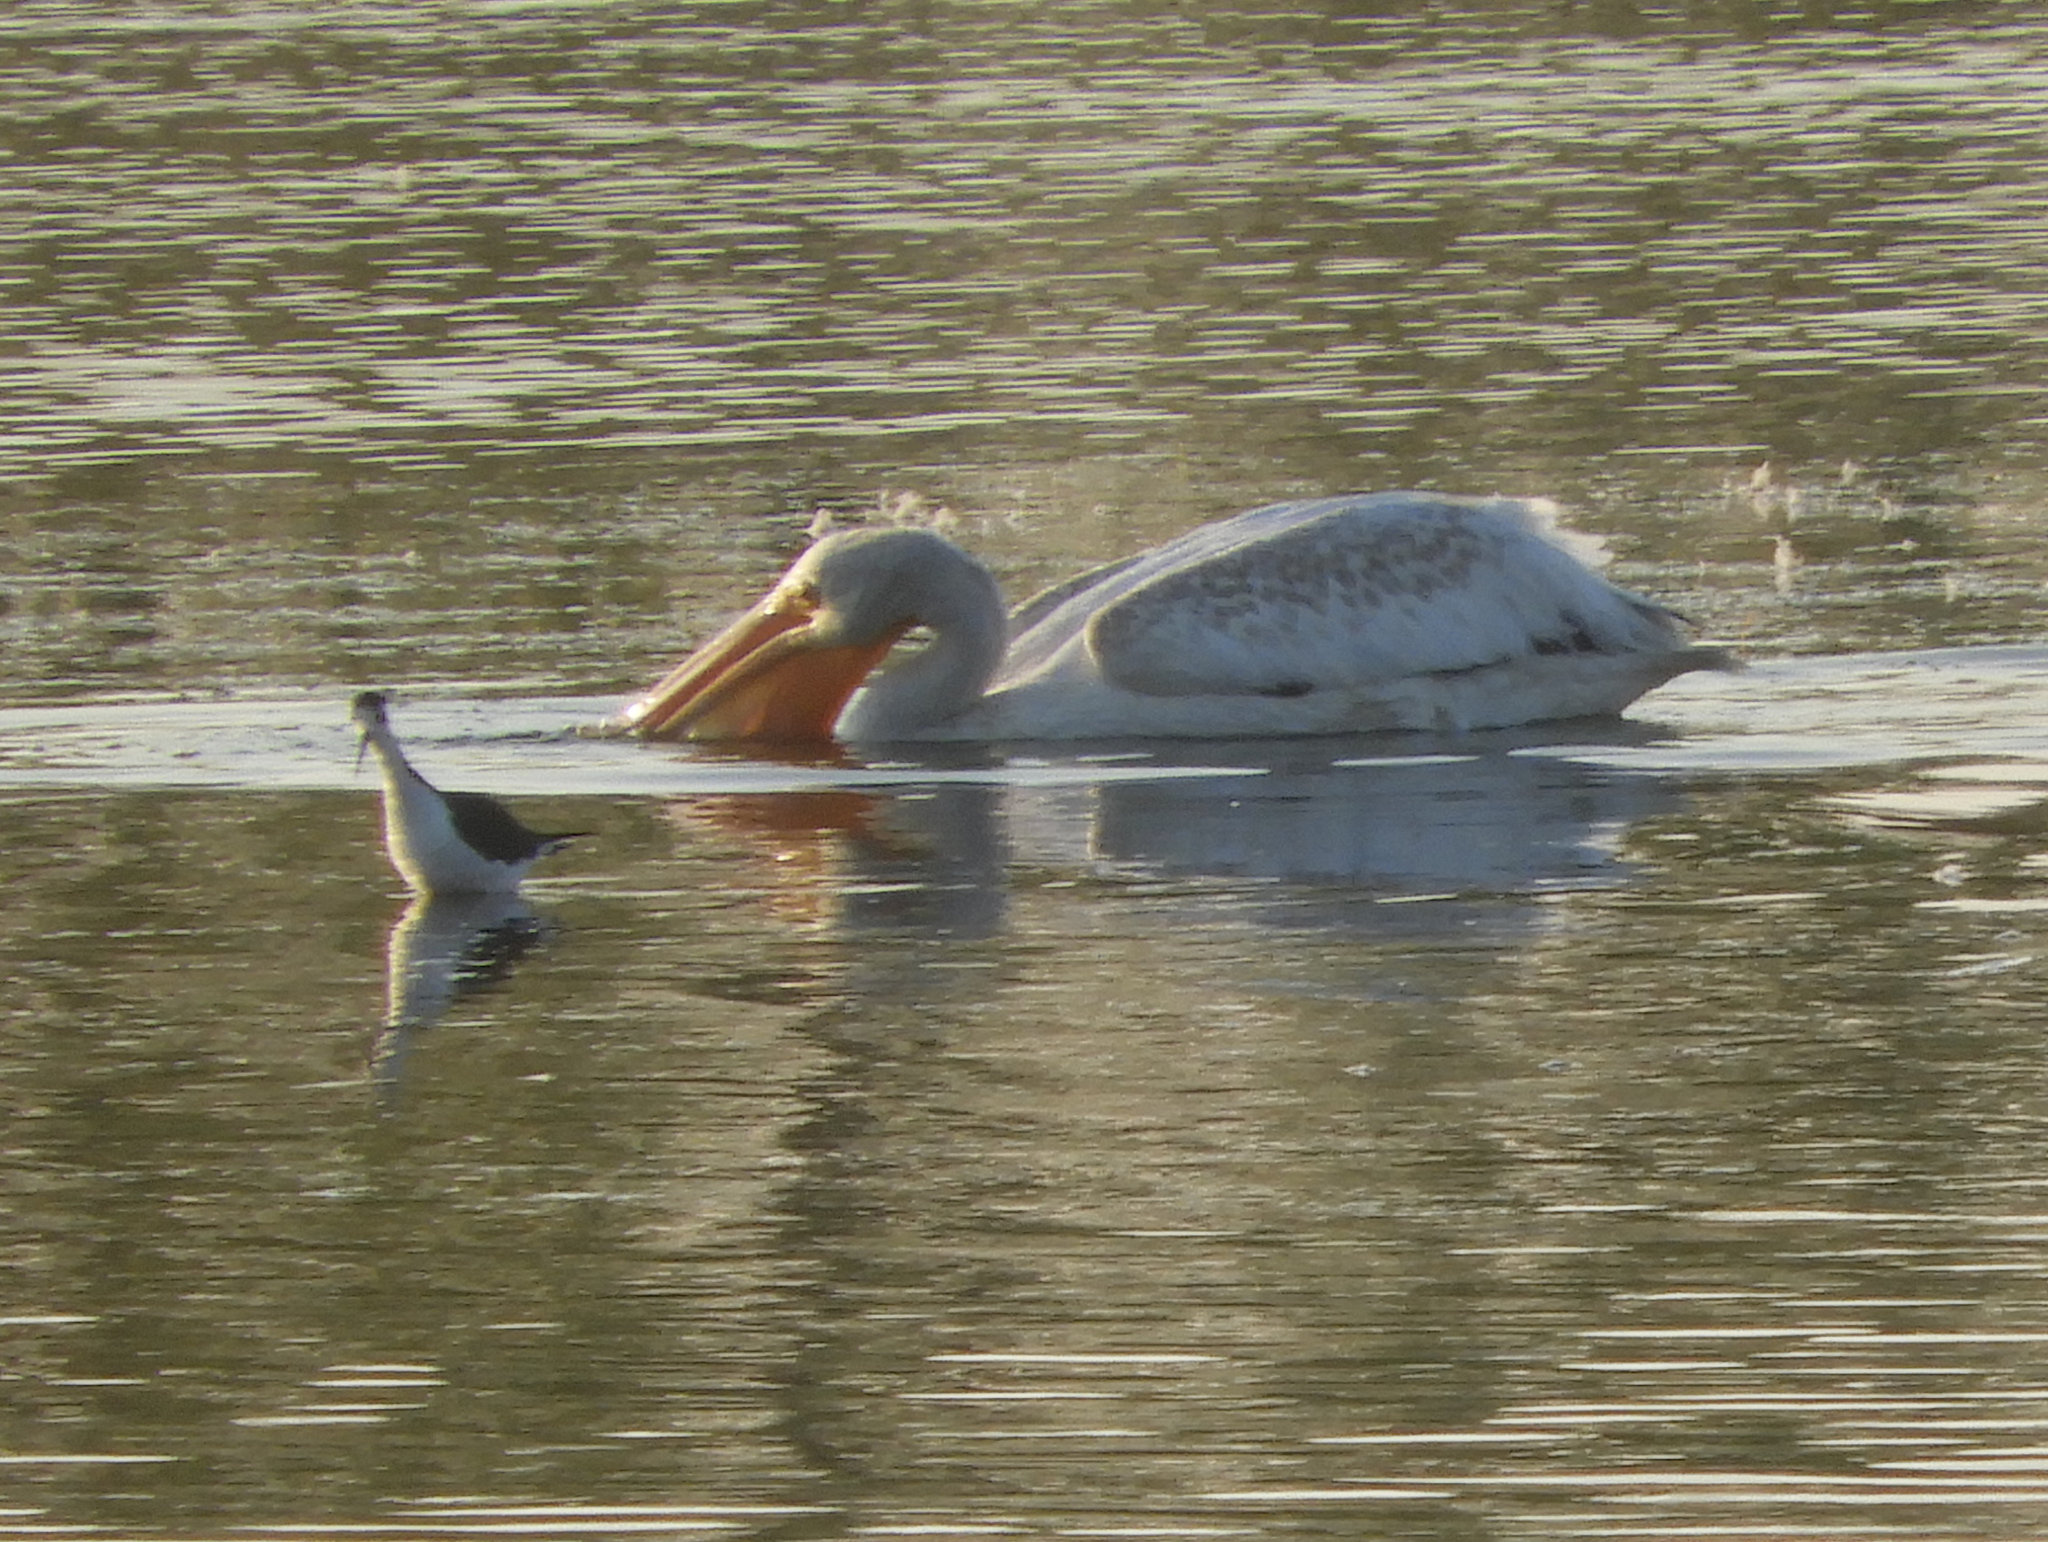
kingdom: Animalia
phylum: Chordata
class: Aves
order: Pelecaniformes
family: Pelecanidae
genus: Pelecanus
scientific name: Pelecanus erythrorhynchos
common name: American white pelican
